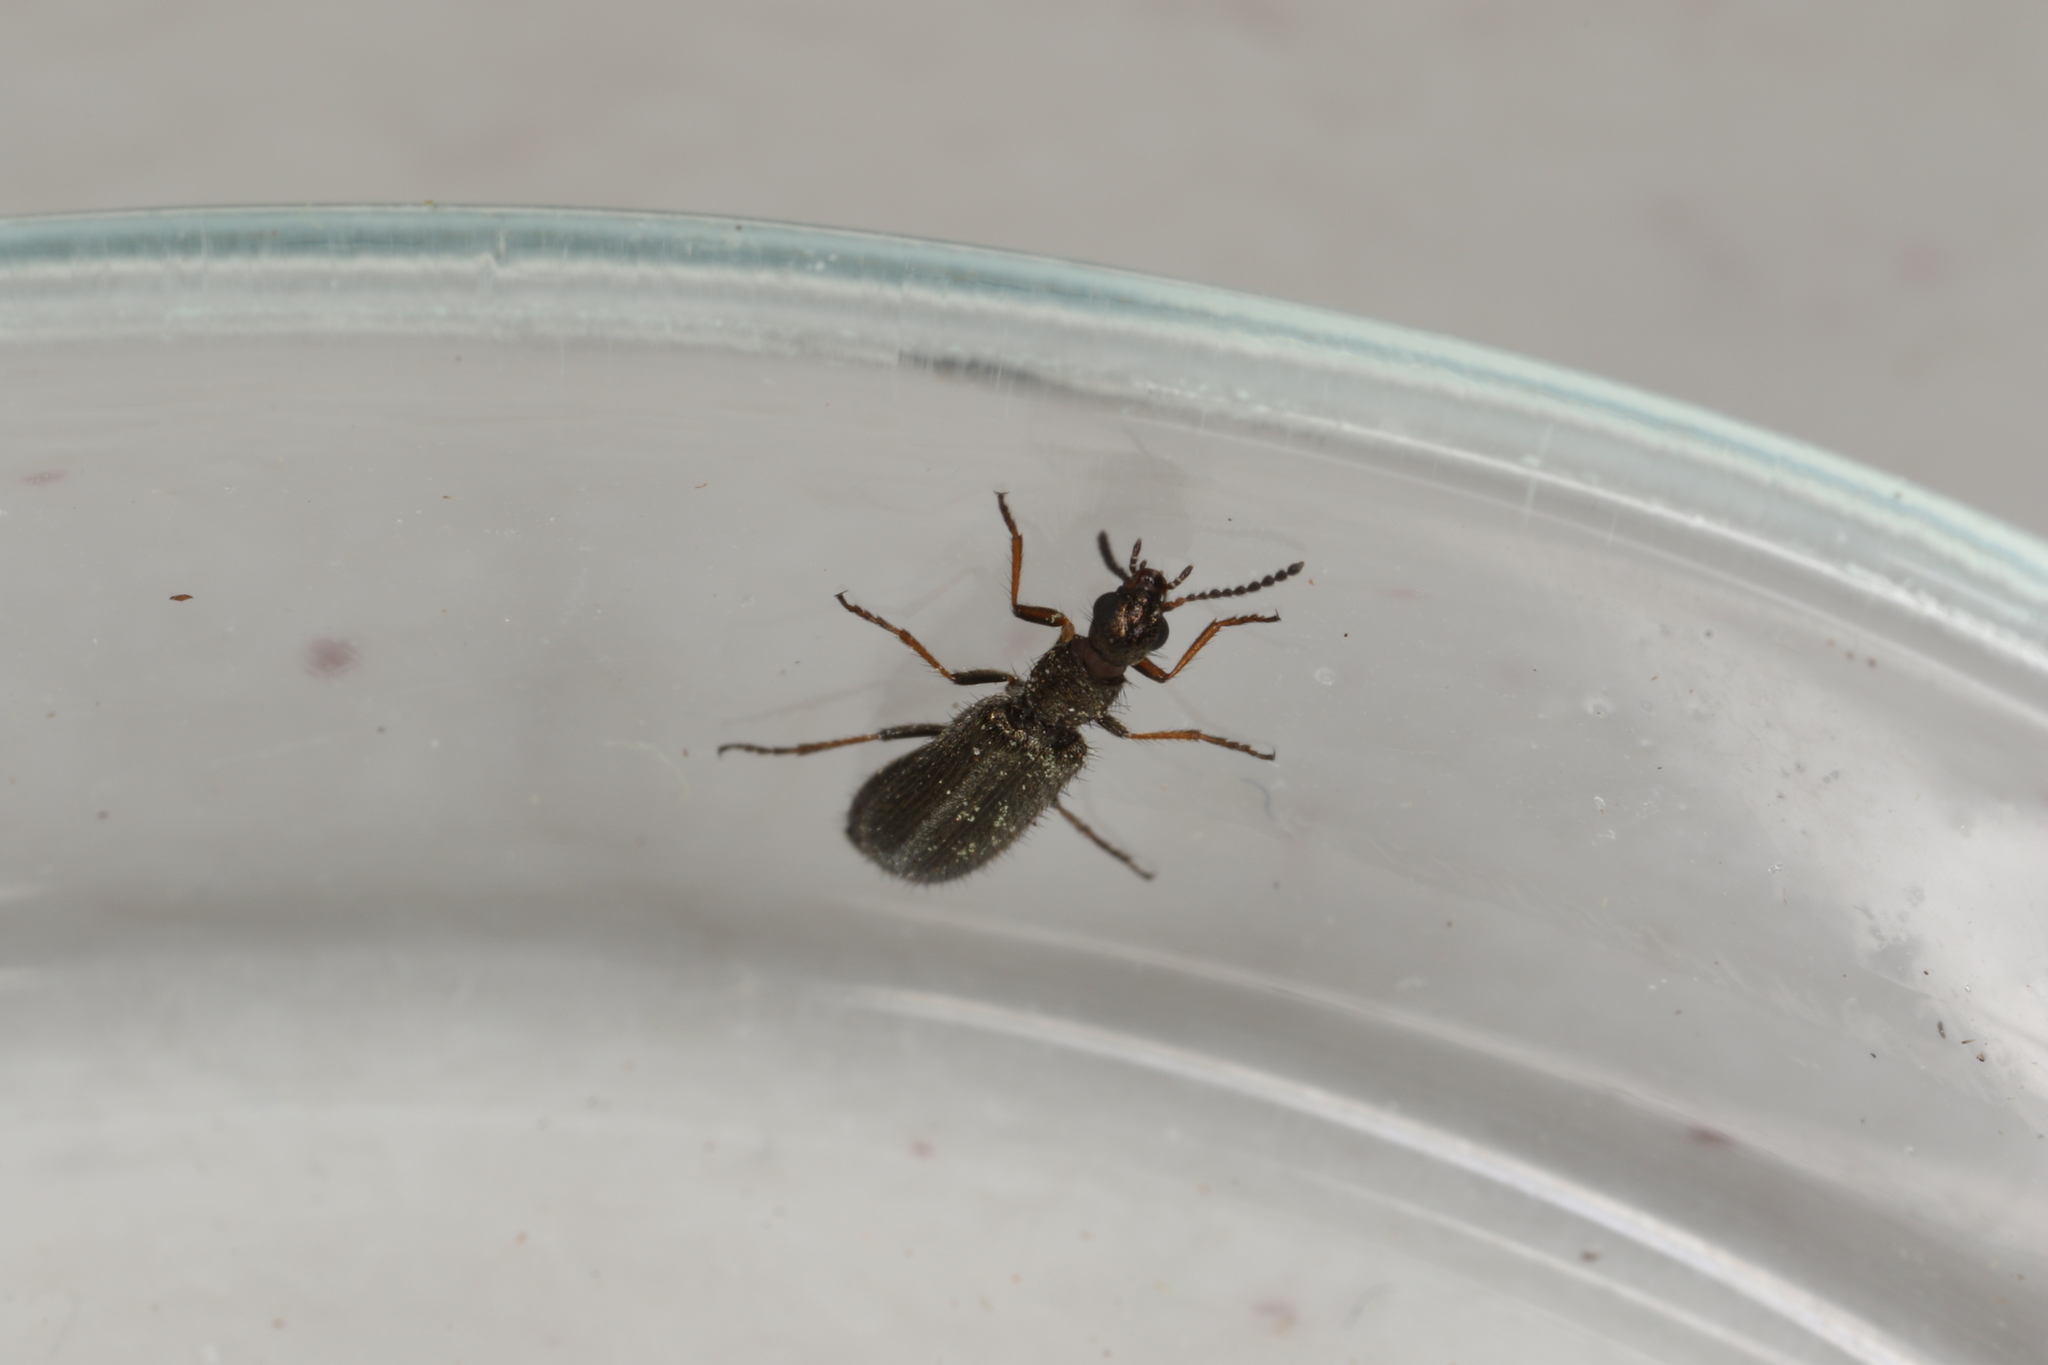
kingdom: Animalia
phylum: Arthropoda
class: Insecta
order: Coleoptera
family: Melyridae
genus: Dasytes
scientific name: Dasytes plumbeus
